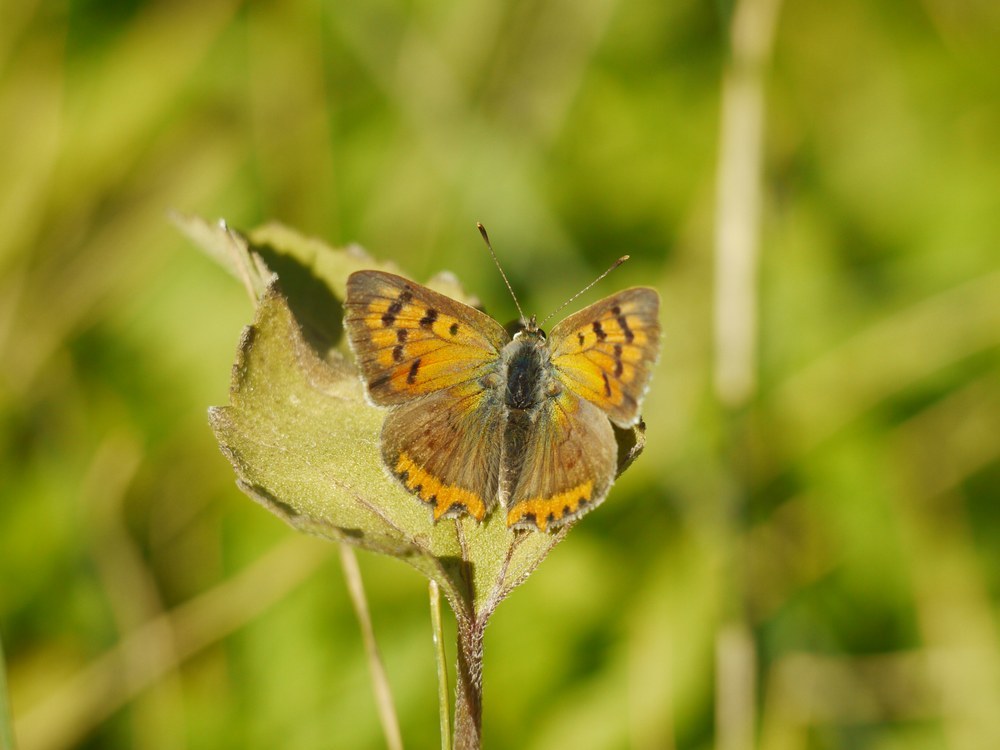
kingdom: Animalia
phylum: Arthropoda
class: Insecta
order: Lepidoptera
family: Lycaenidae
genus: Lycaena
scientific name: Lycaena phlaeas
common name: Small copper
